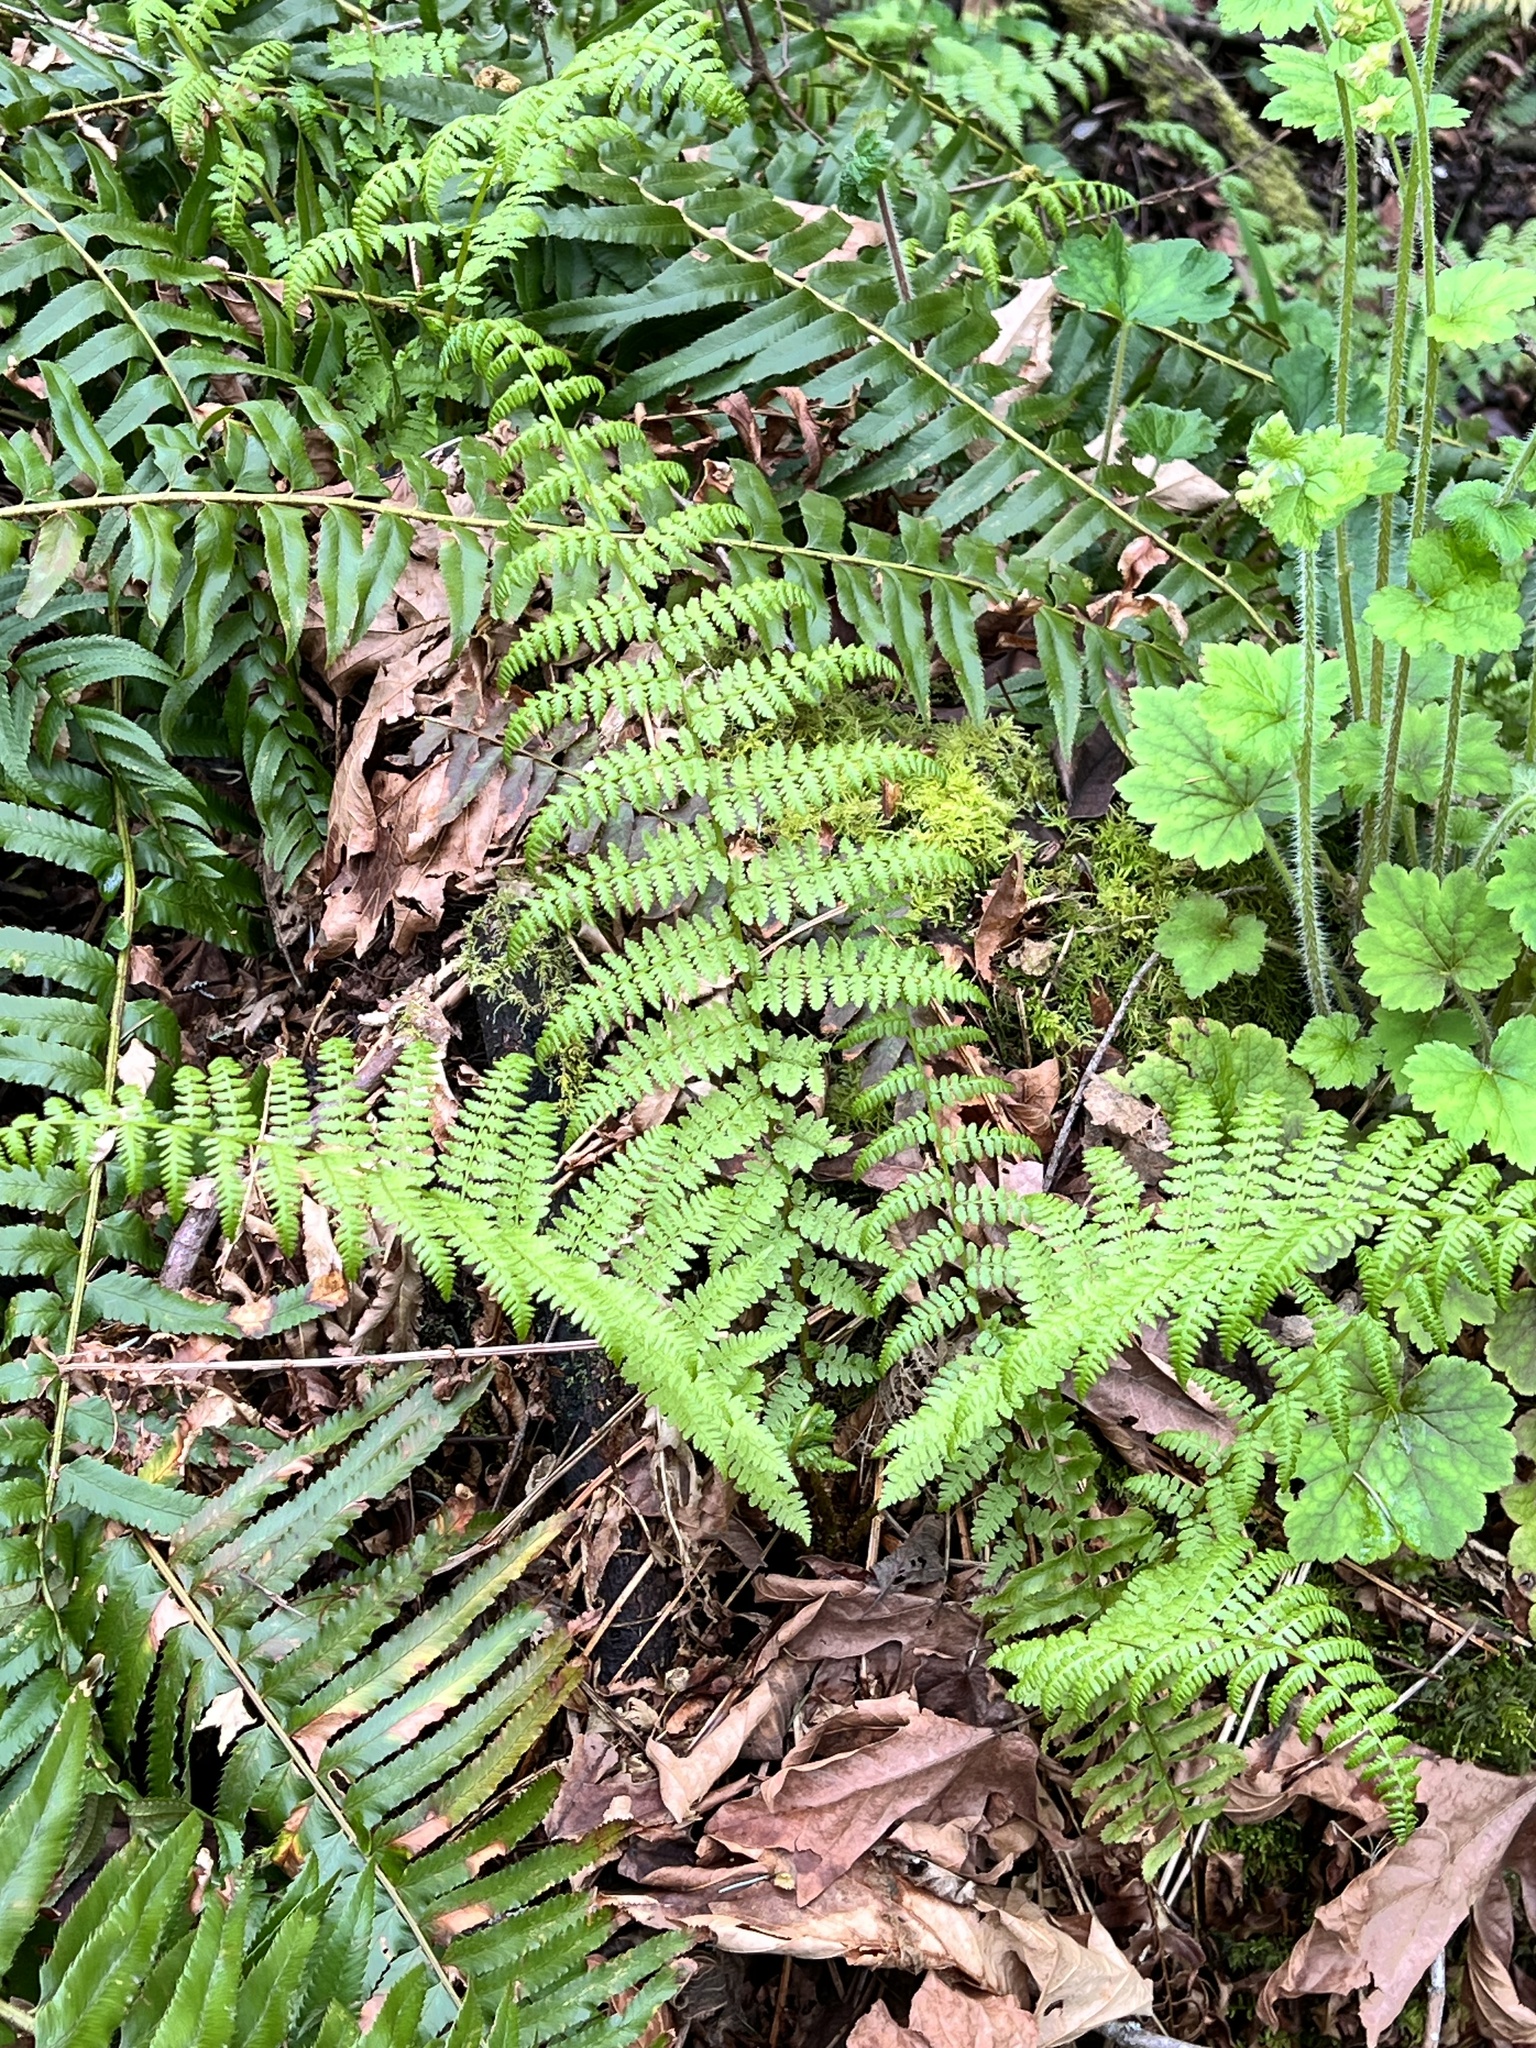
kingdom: Plantae
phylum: Tracheophyta
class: Polypodiopsida
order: Polypodiales
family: Athyriaceae
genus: Athyrium
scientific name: Athyrium filix-femina
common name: Lady fern
